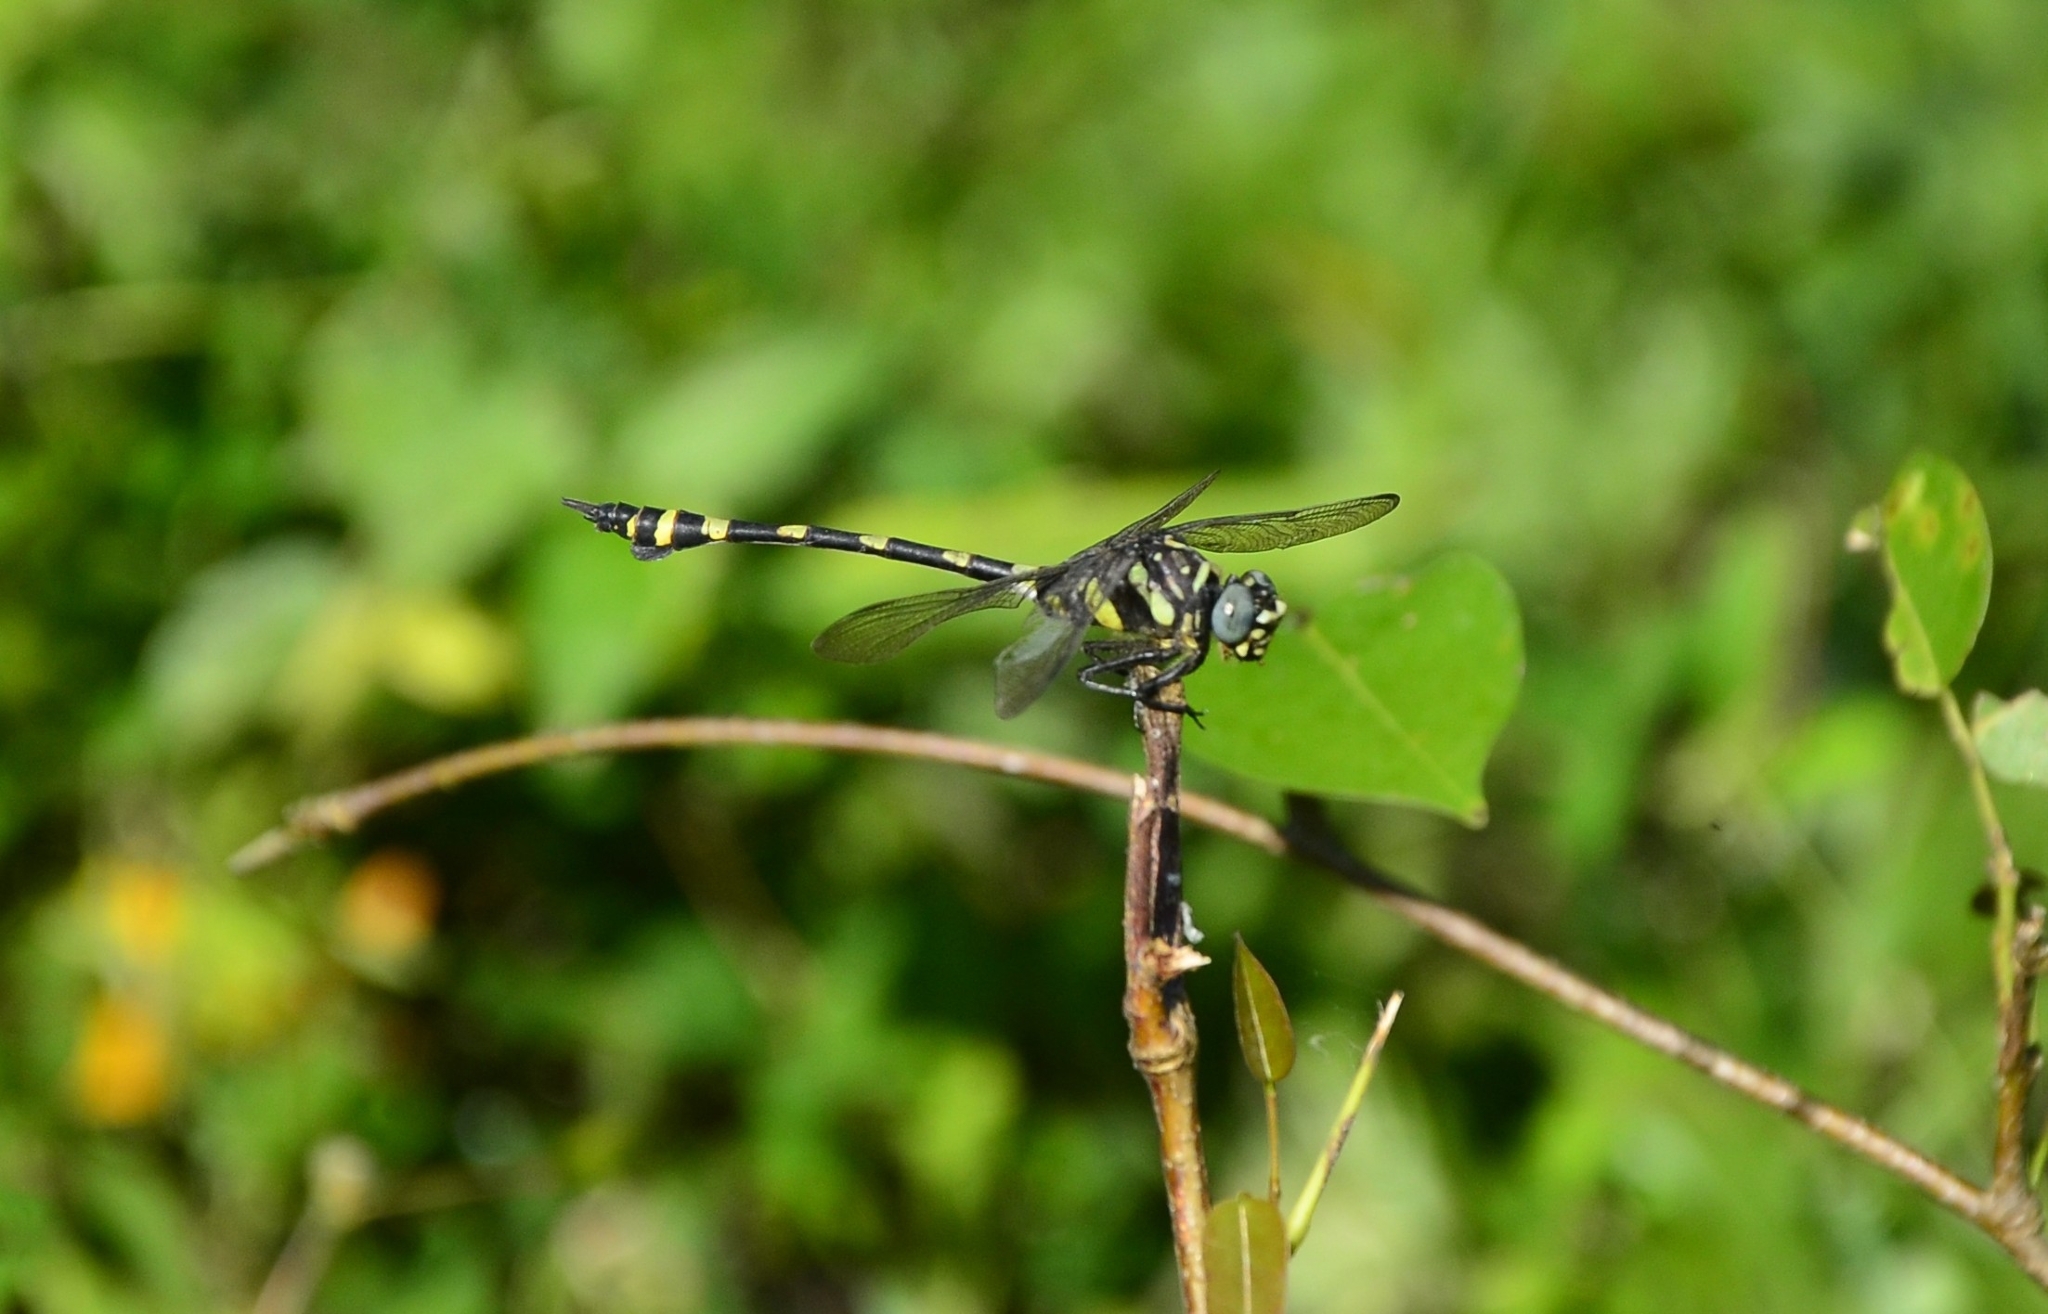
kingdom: Animalia
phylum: Arthropoda
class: Insecta
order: Odonata
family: Gomphidae
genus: Ictinogomphus
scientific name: Ictinogomphus rapax
